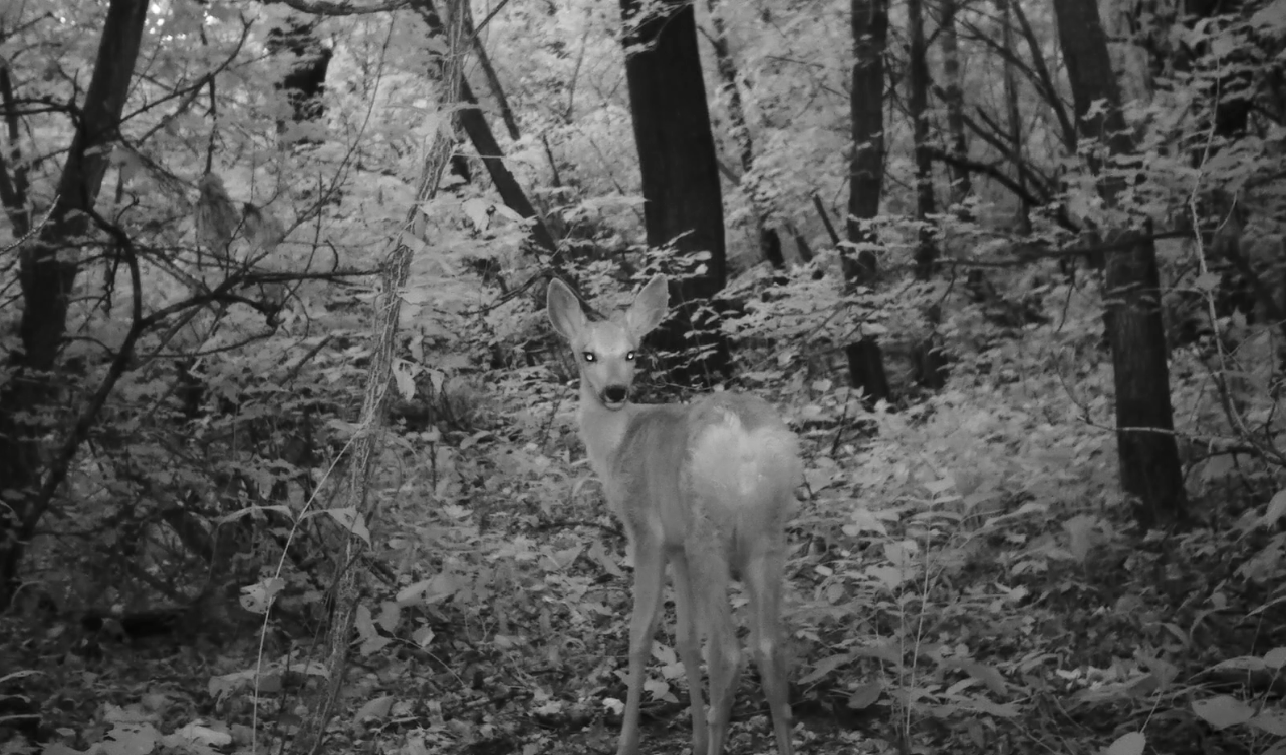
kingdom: Animalia
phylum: Chordata
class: Mammalia
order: Artiodactyla
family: Cervidae
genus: Capreolus
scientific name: Capreolus pygargus
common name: Siberian roe
